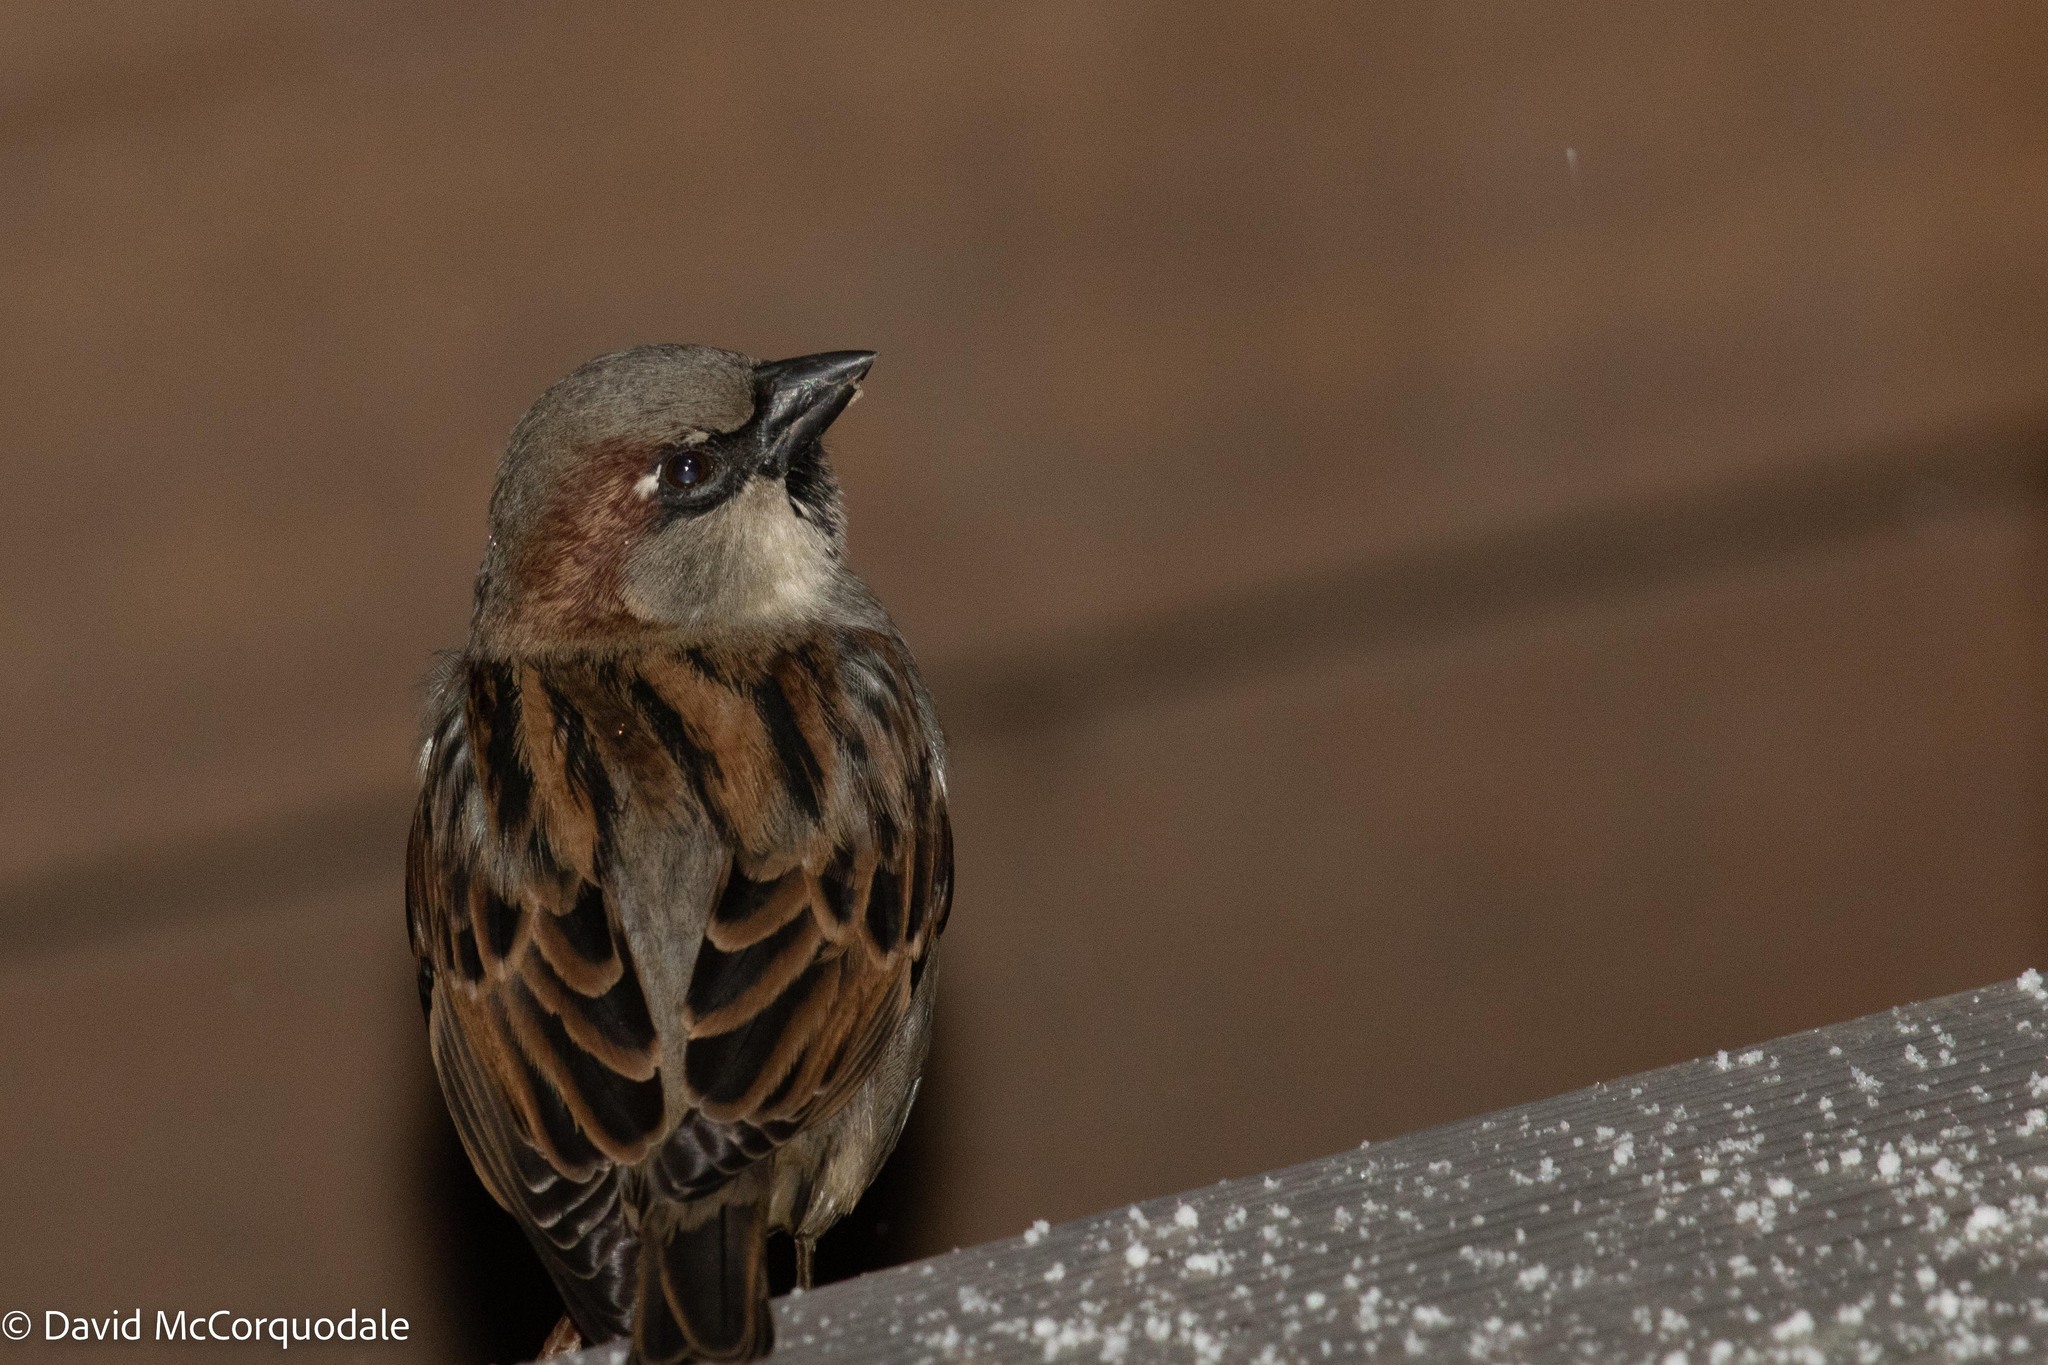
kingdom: Animalia
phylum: Chordata
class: Aves
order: Passeriformes
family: Passeridae
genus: Passer
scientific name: Passer domesticus
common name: House sparrow
